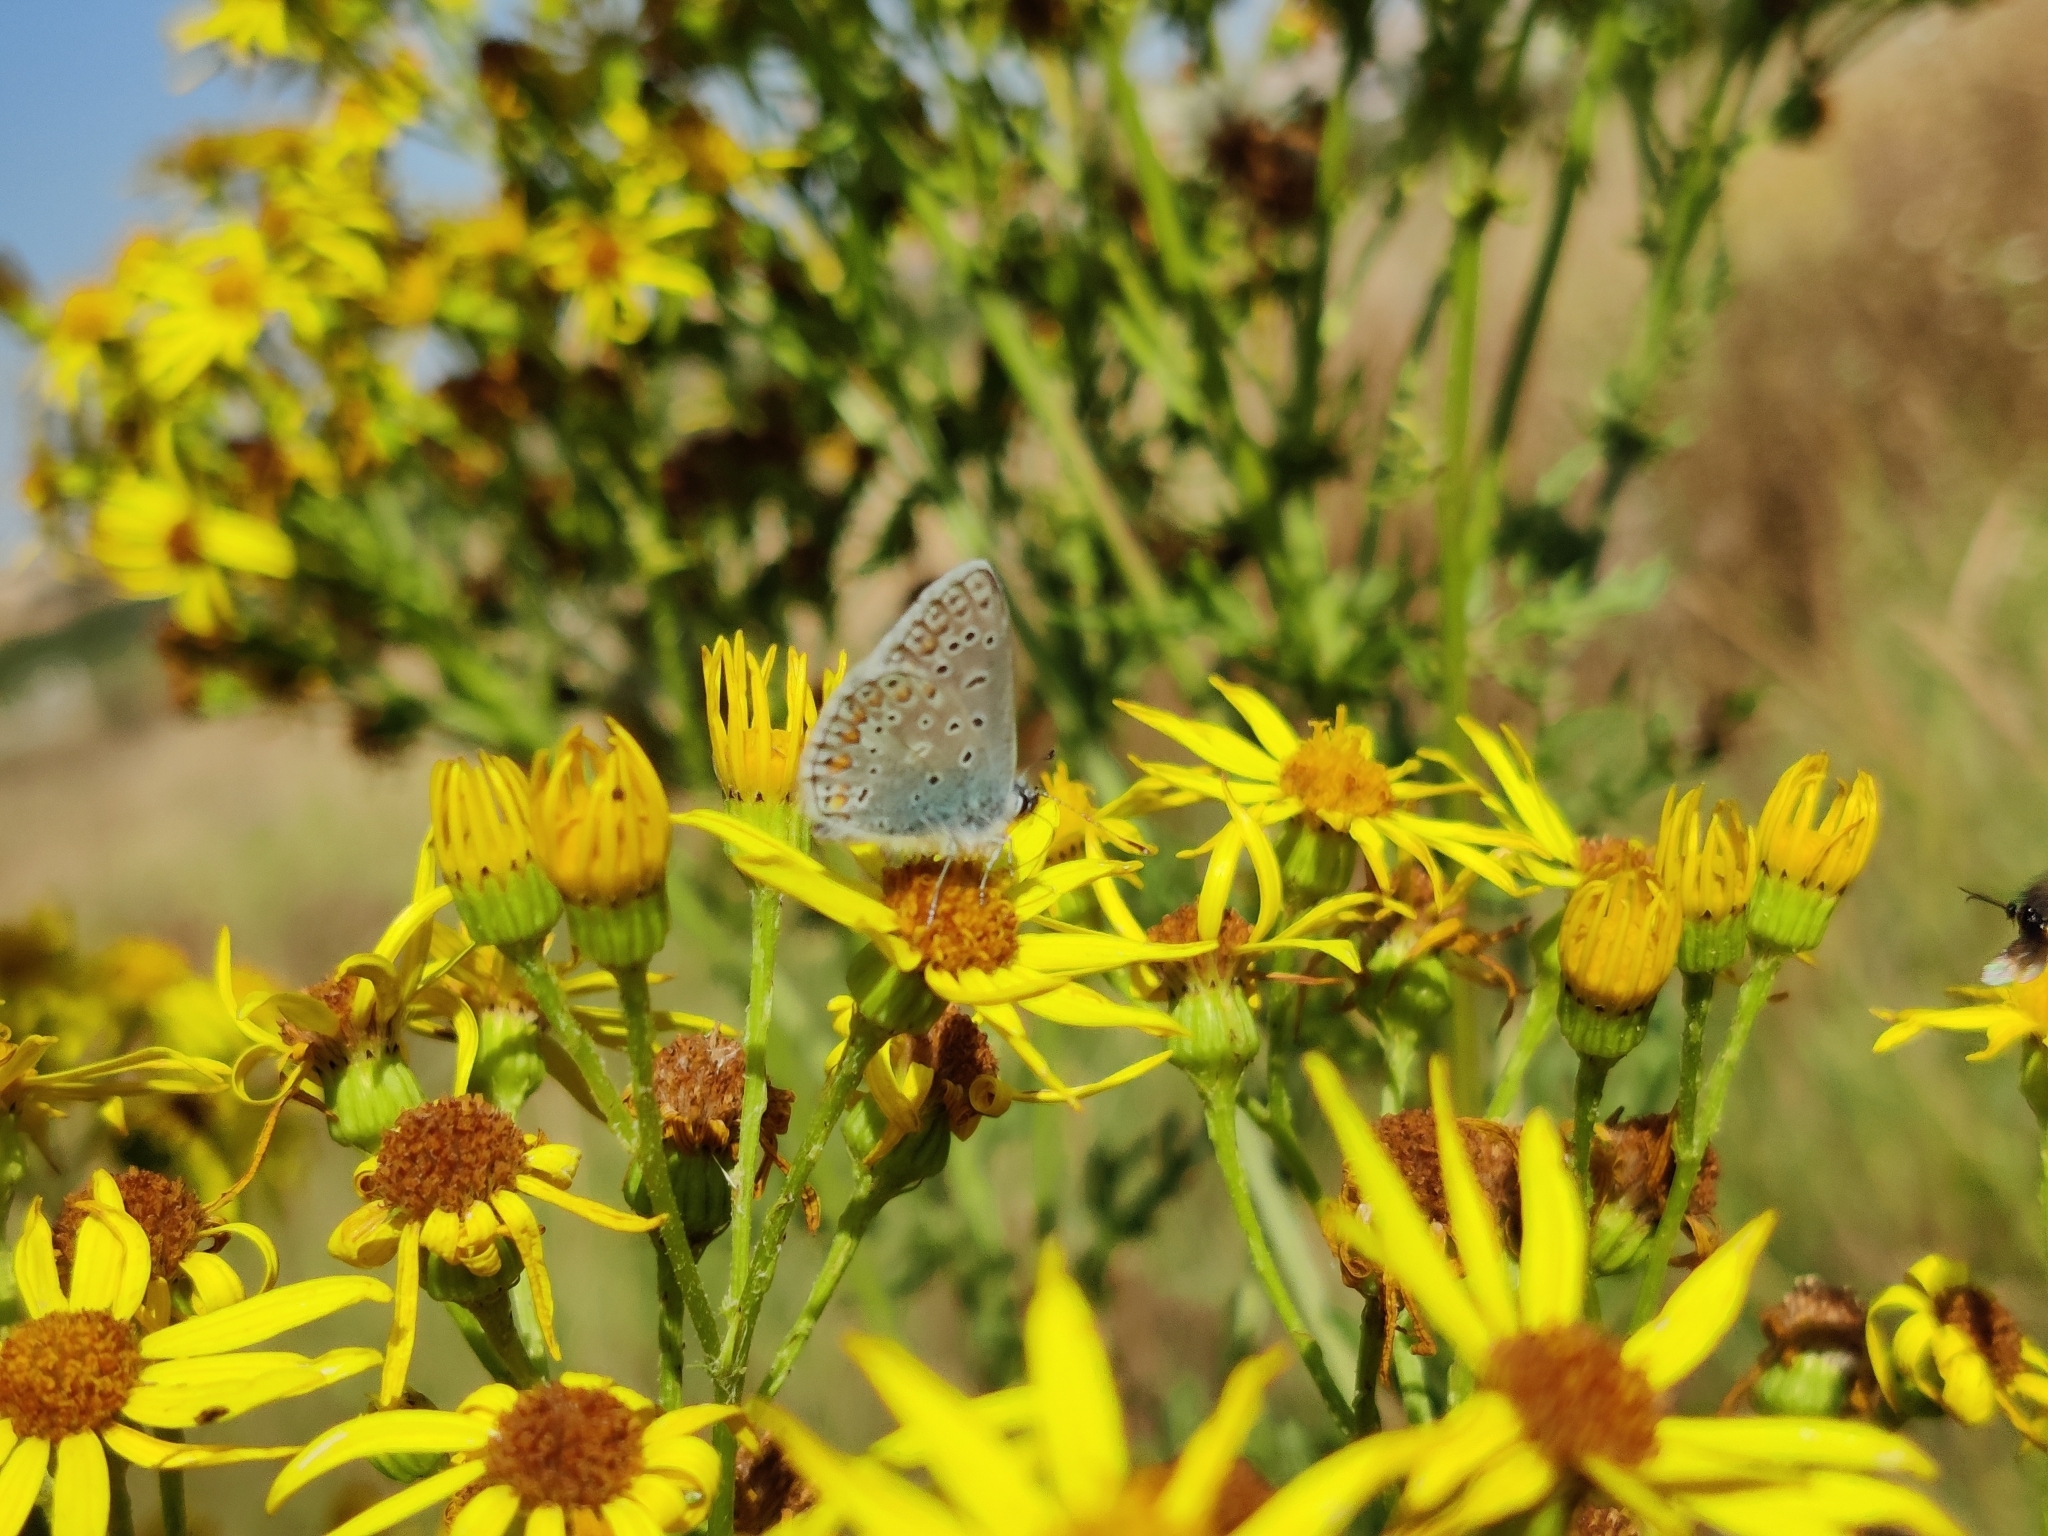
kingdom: Animalia
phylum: Arthropoda
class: Insecta
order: Lepidoptera
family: Lycaenidae
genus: Polyommatus
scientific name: Polyommatus icarus
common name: Common blue
